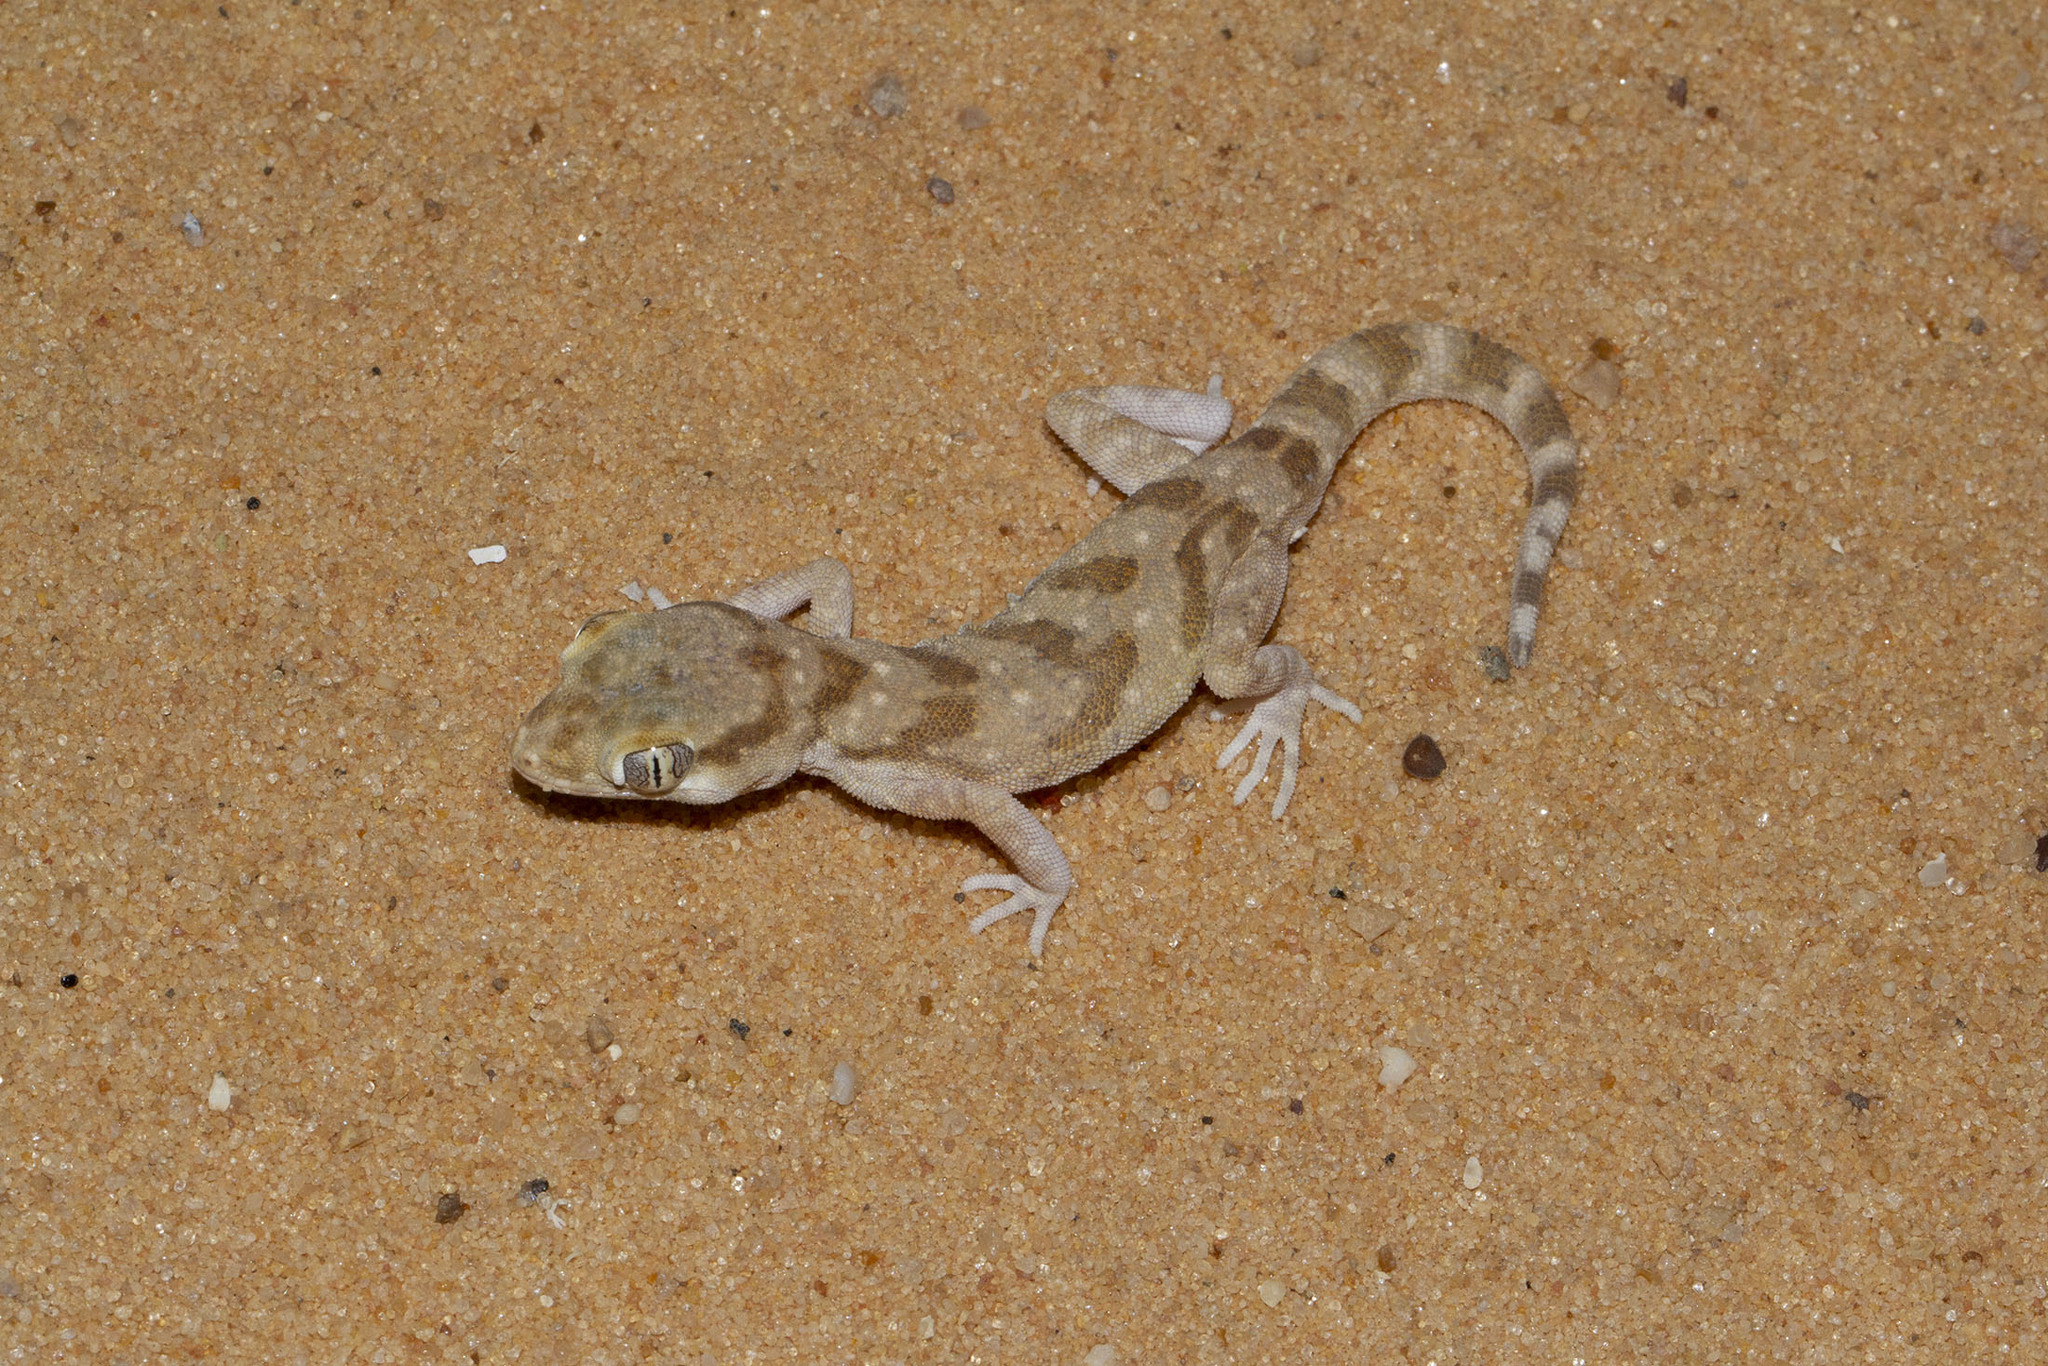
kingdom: Animalia
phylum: Chordata
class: Squamata
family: Gekkonidae
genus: Stenodactylus
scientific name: Stenodactylus sthenodactylus
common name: Elegant gecko
